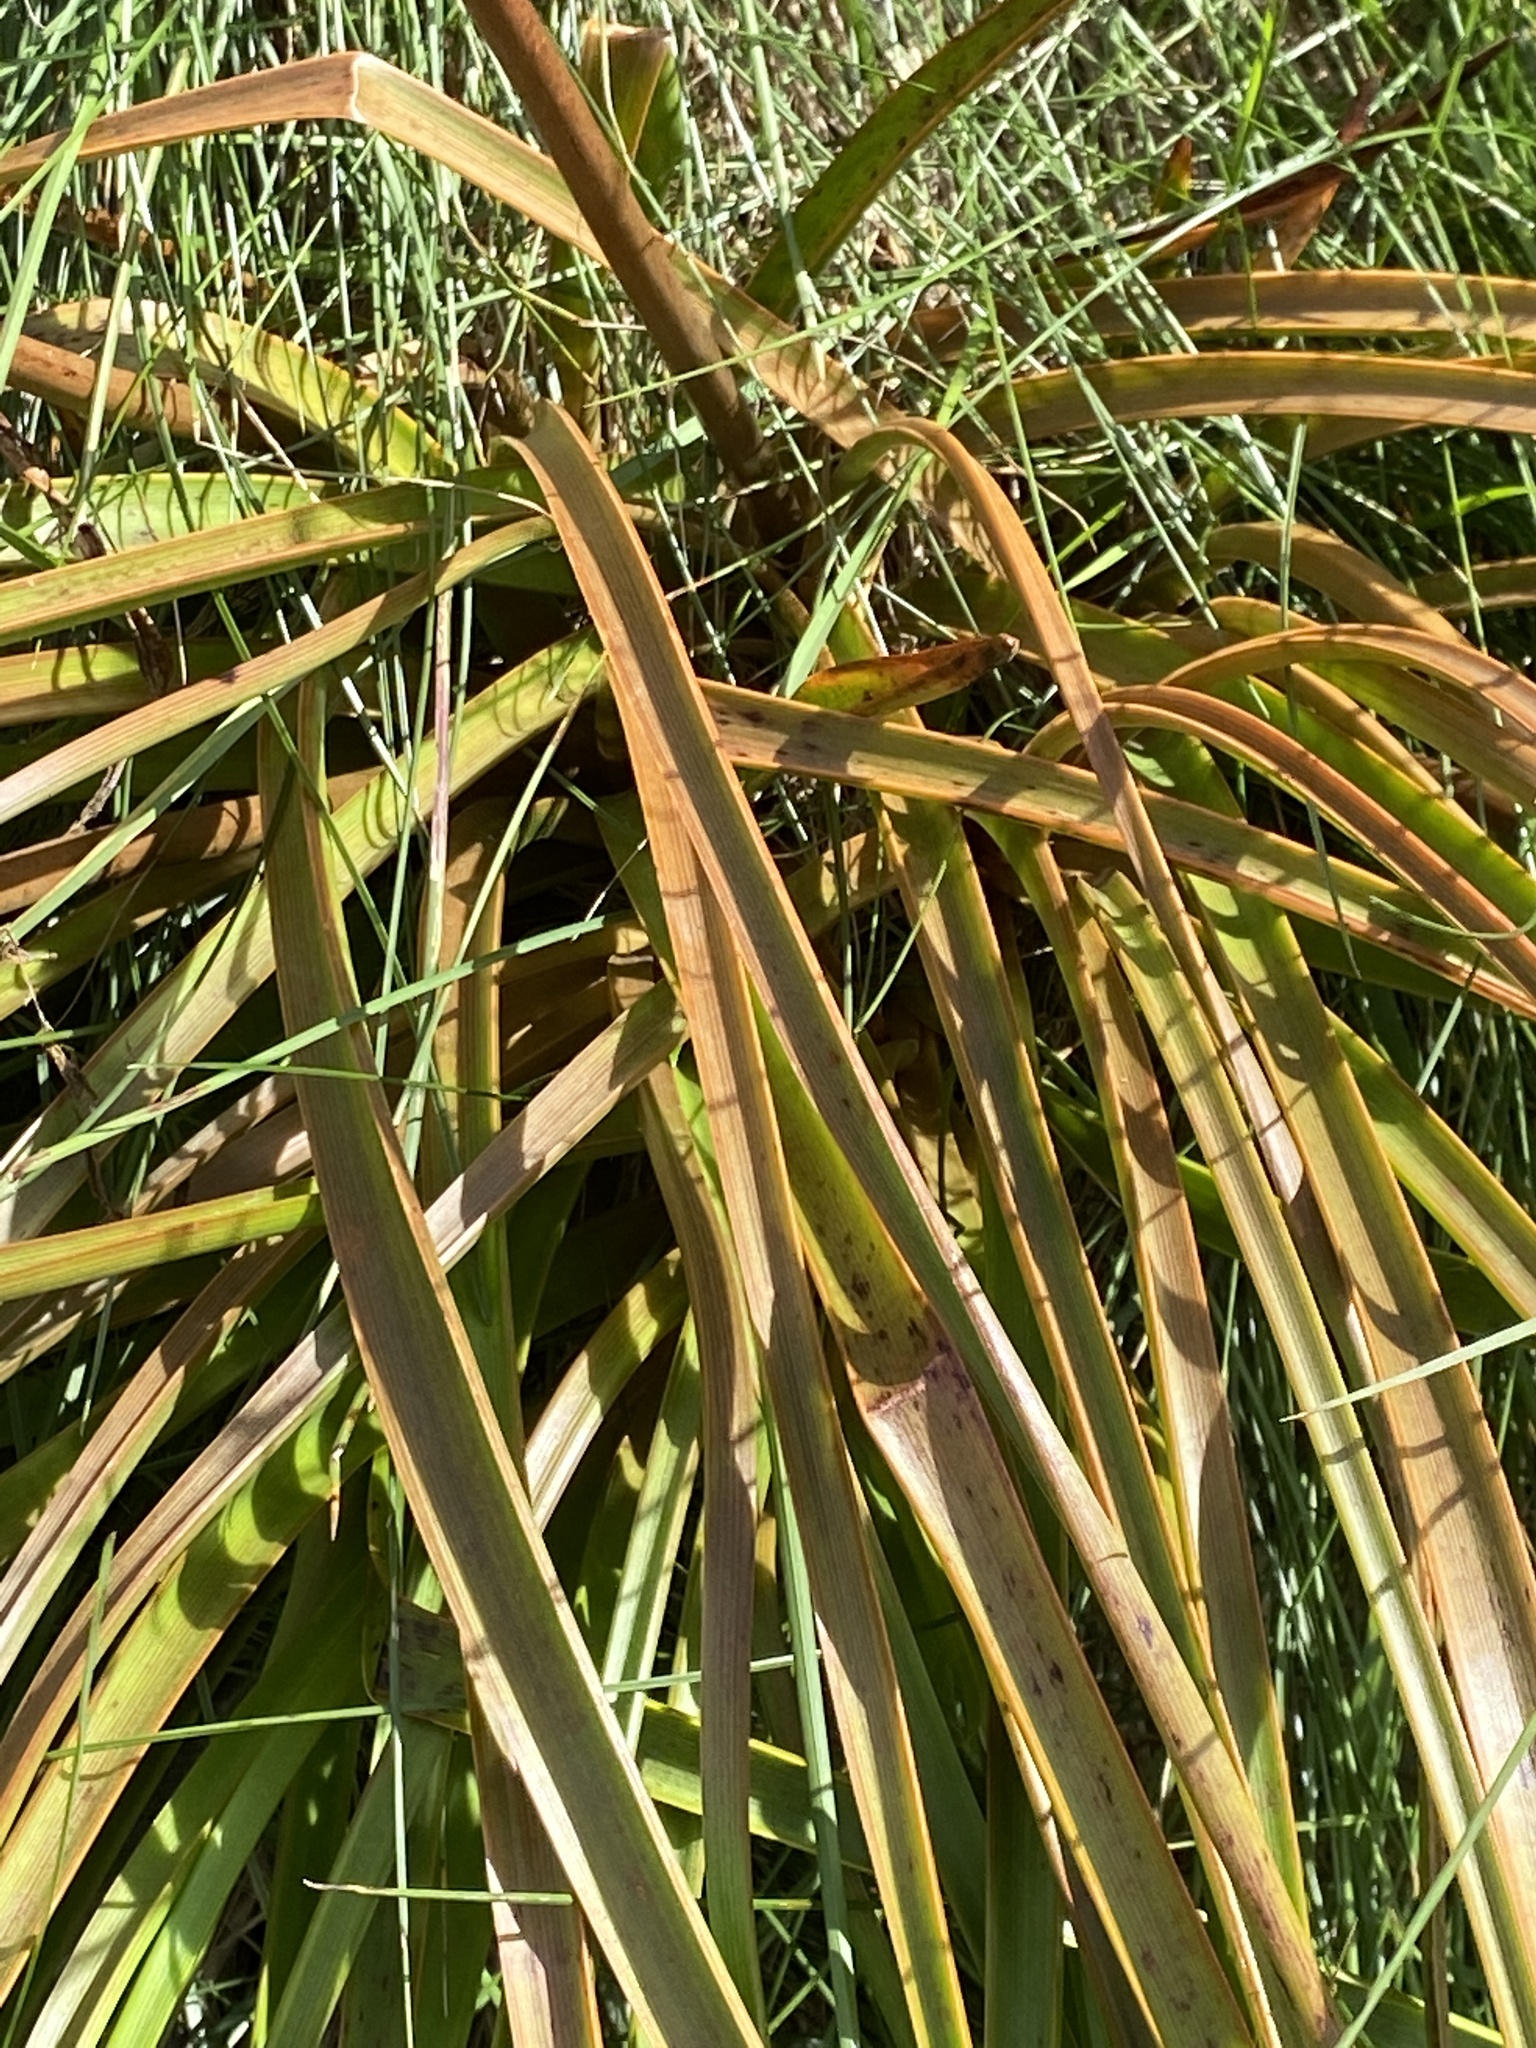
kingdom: Plantae
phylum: Tracheophyta
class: Liliopsida
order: Asparagales
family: Asphodelaceae
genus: Bulbinella
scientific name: Bulbinella angustifolia
